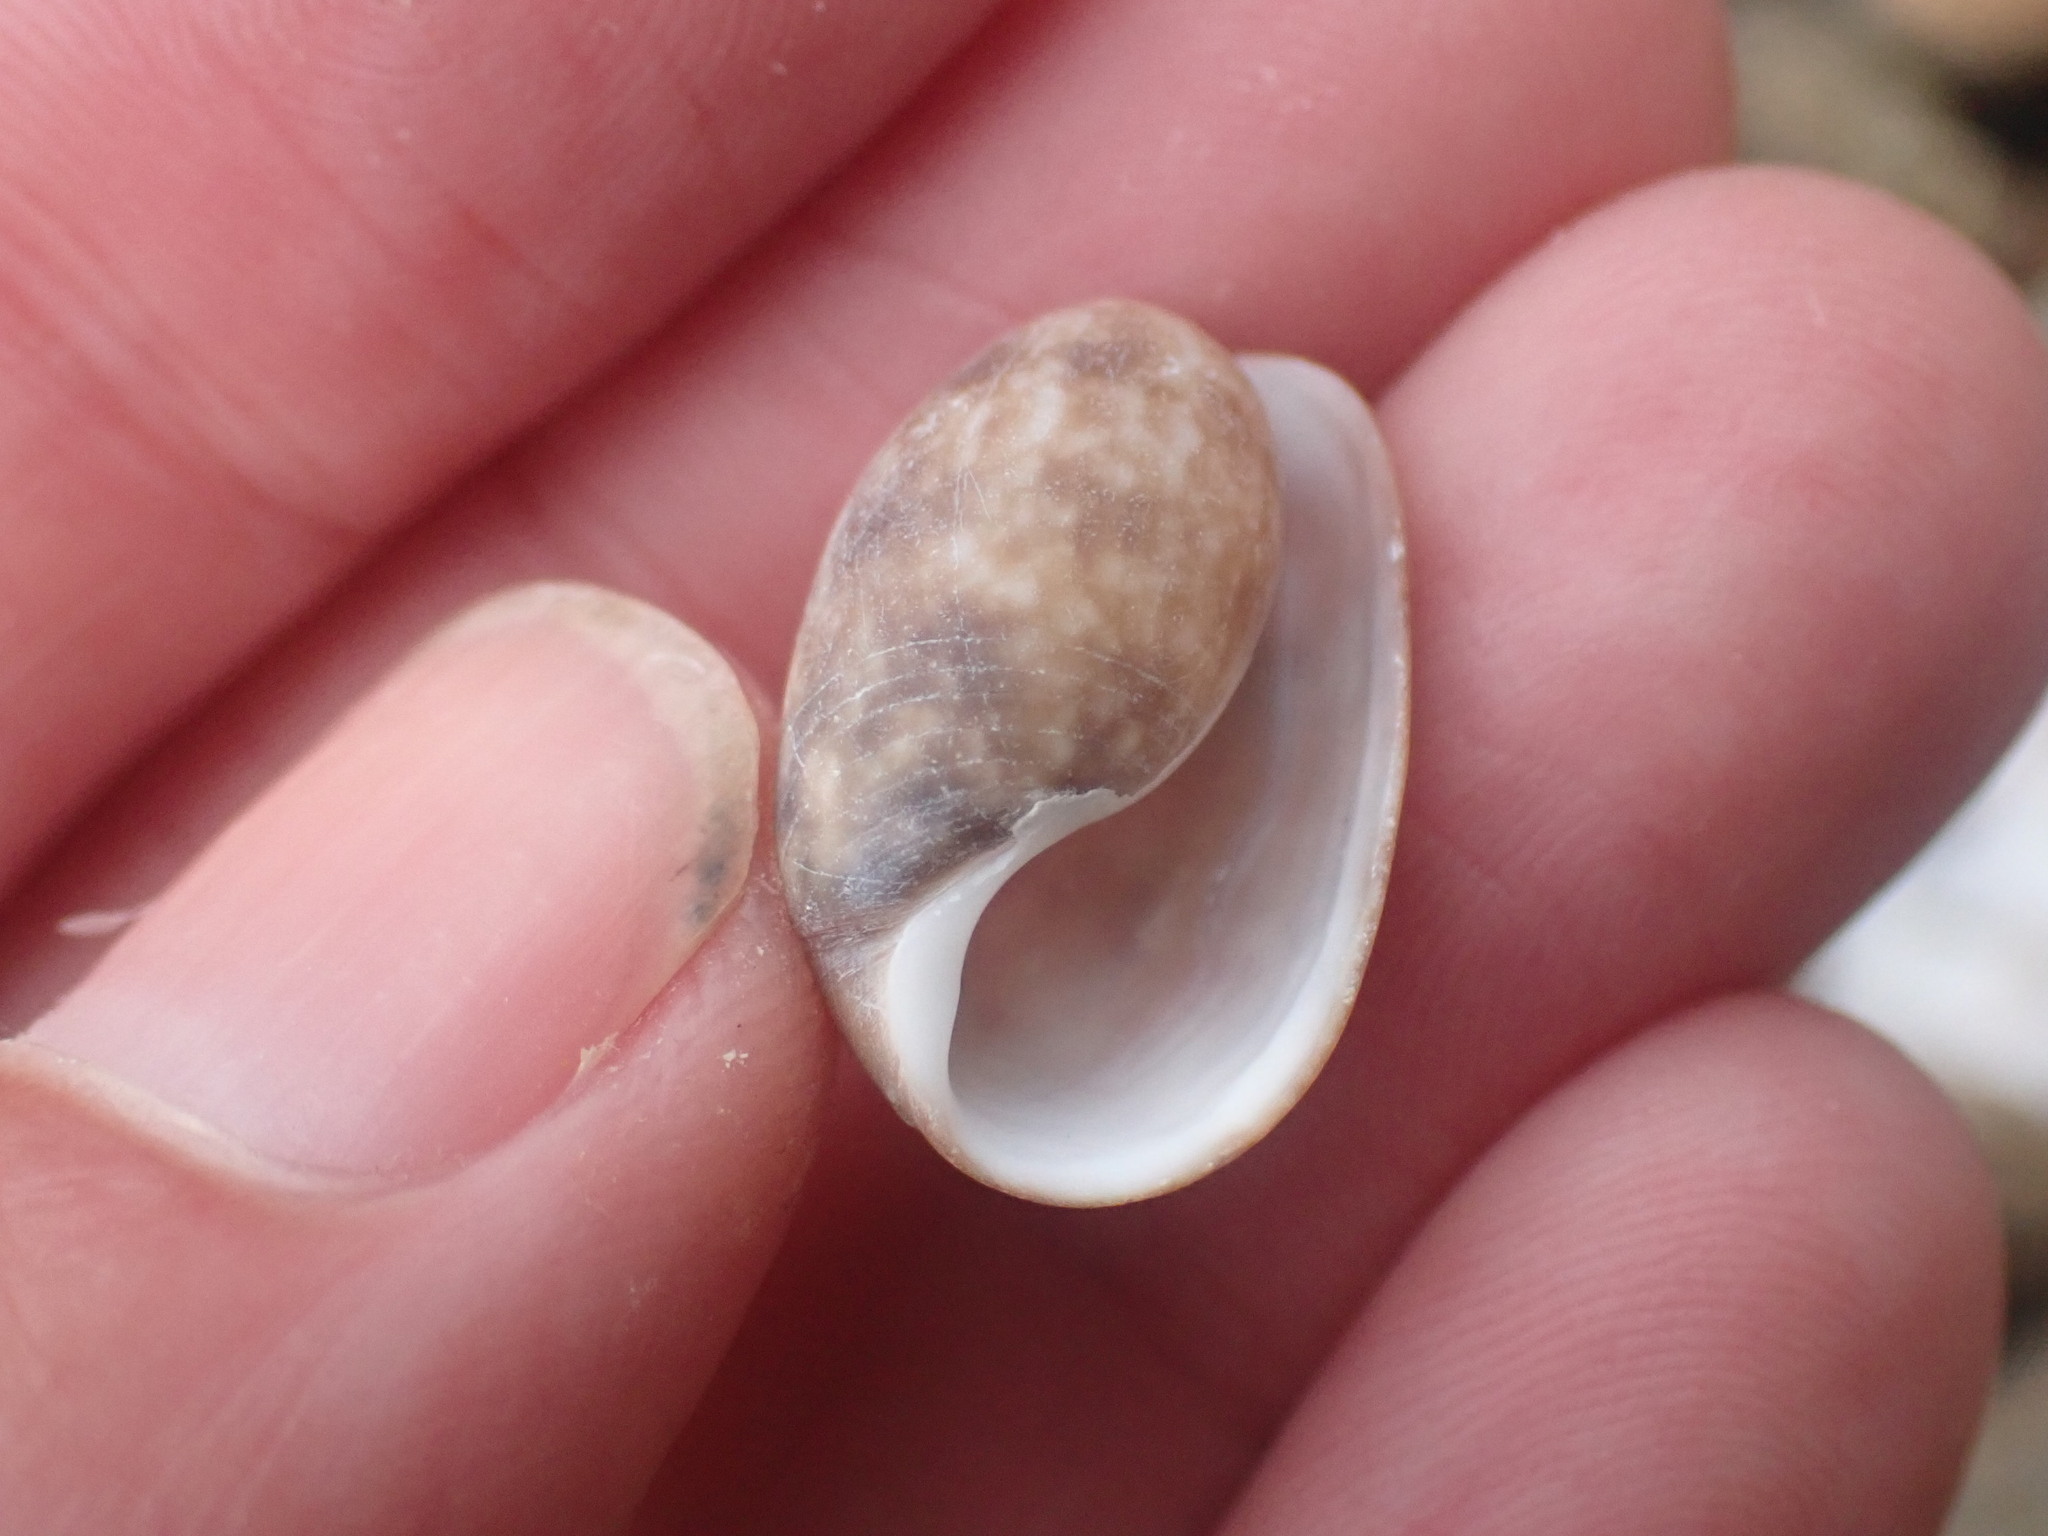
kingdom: Animalia
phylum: Mollusca
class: Gastropoda
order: Cephalaspidea
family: Bullidae
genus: Bulla
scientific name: Bulla quoyii
